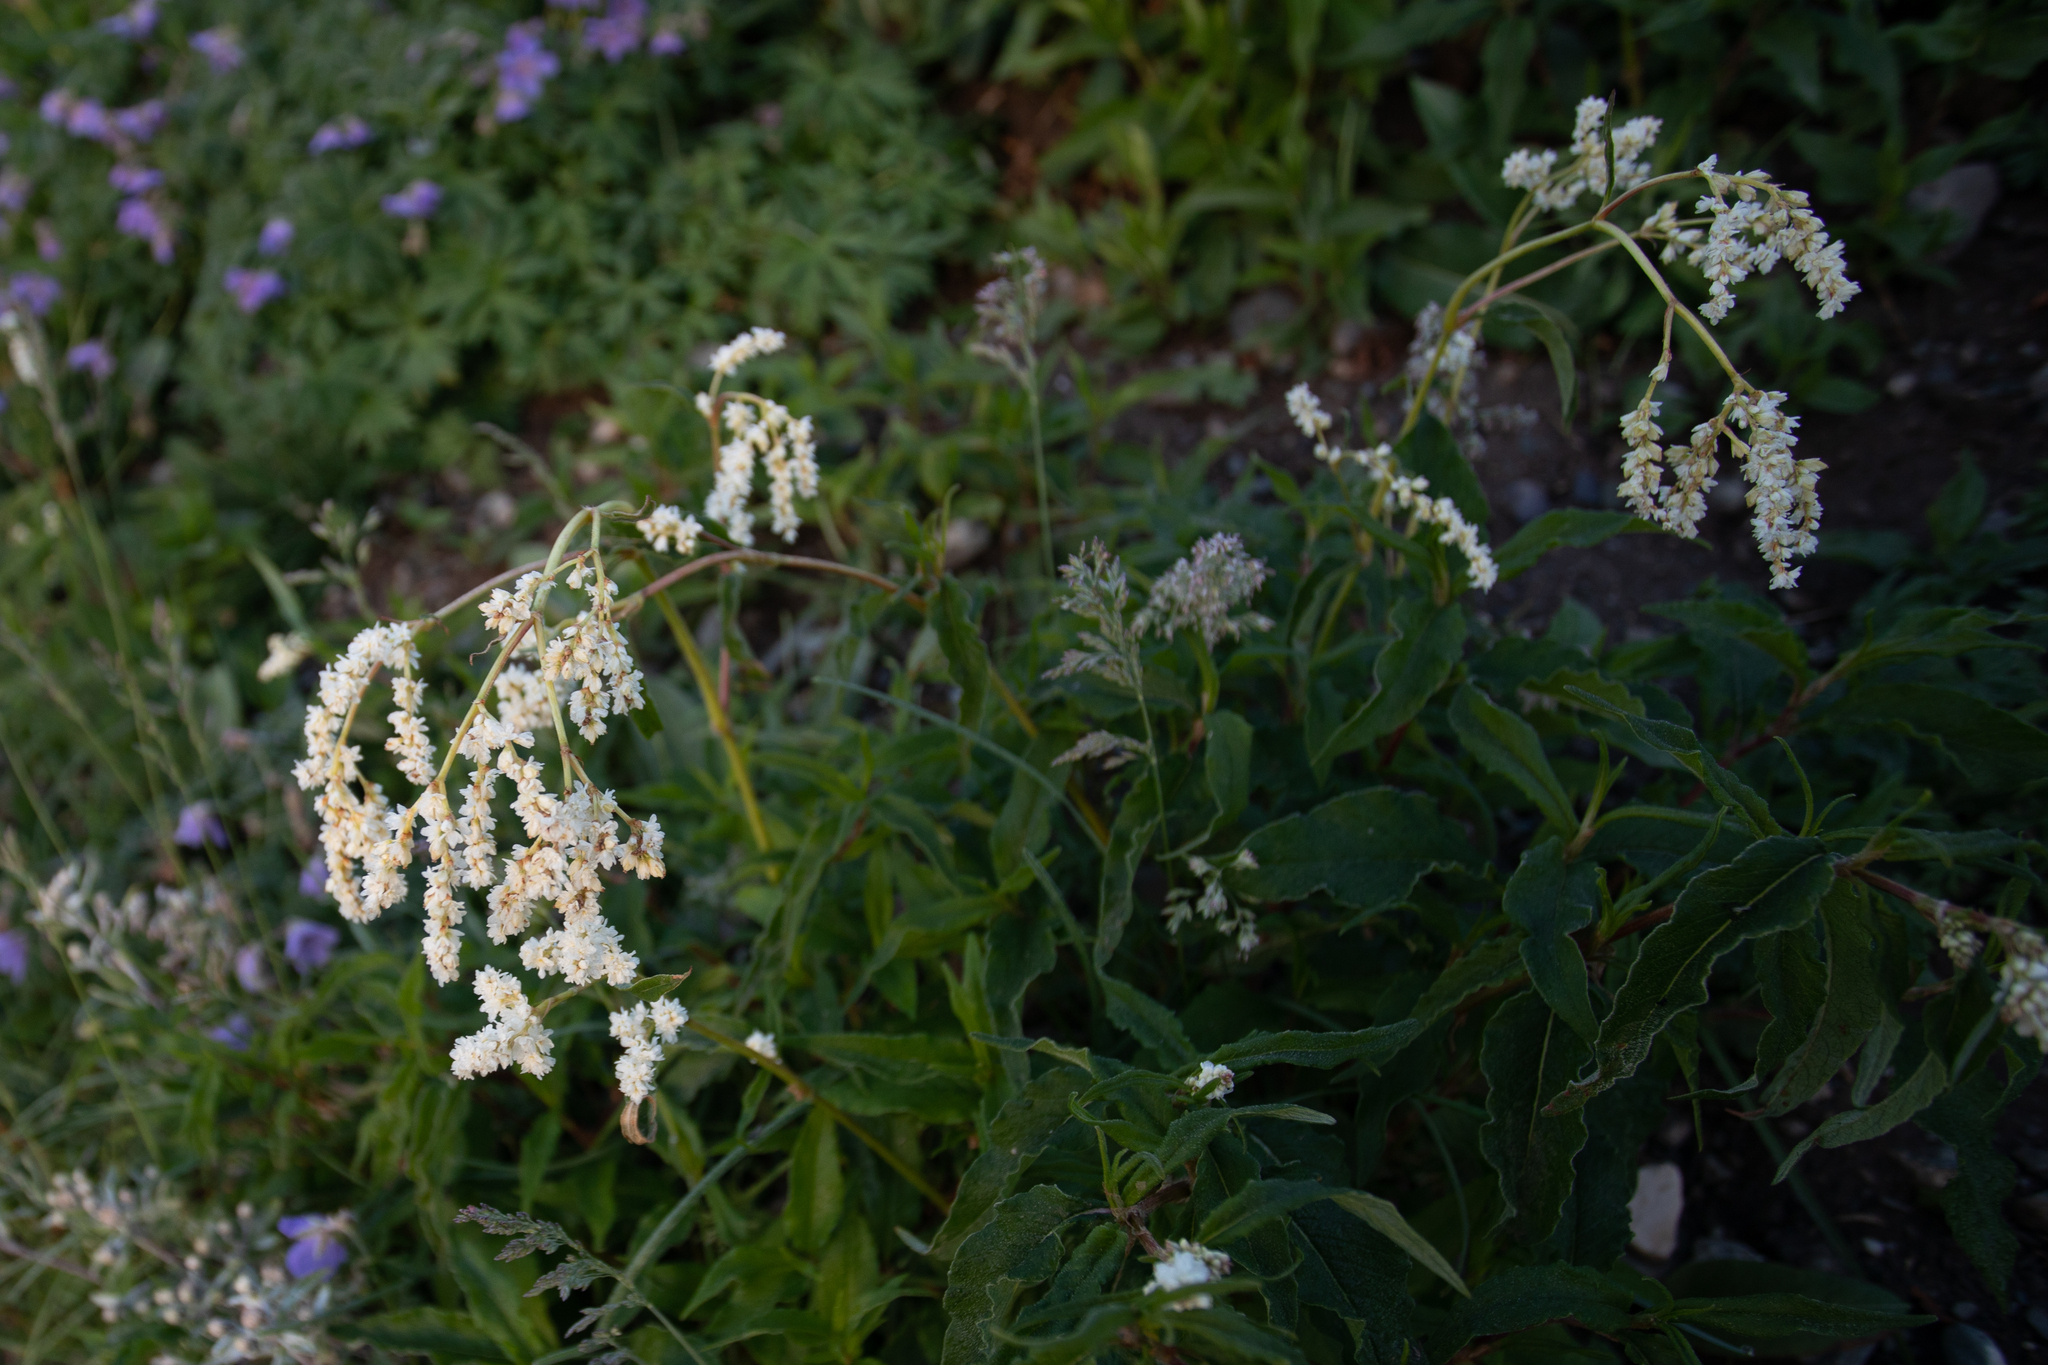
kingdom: Plantae
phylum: Tracheophyta
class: Magnoliopsida
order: Caryophyllales
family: Polygonaceae
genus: Koenigia
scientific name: Koenigia alpina
